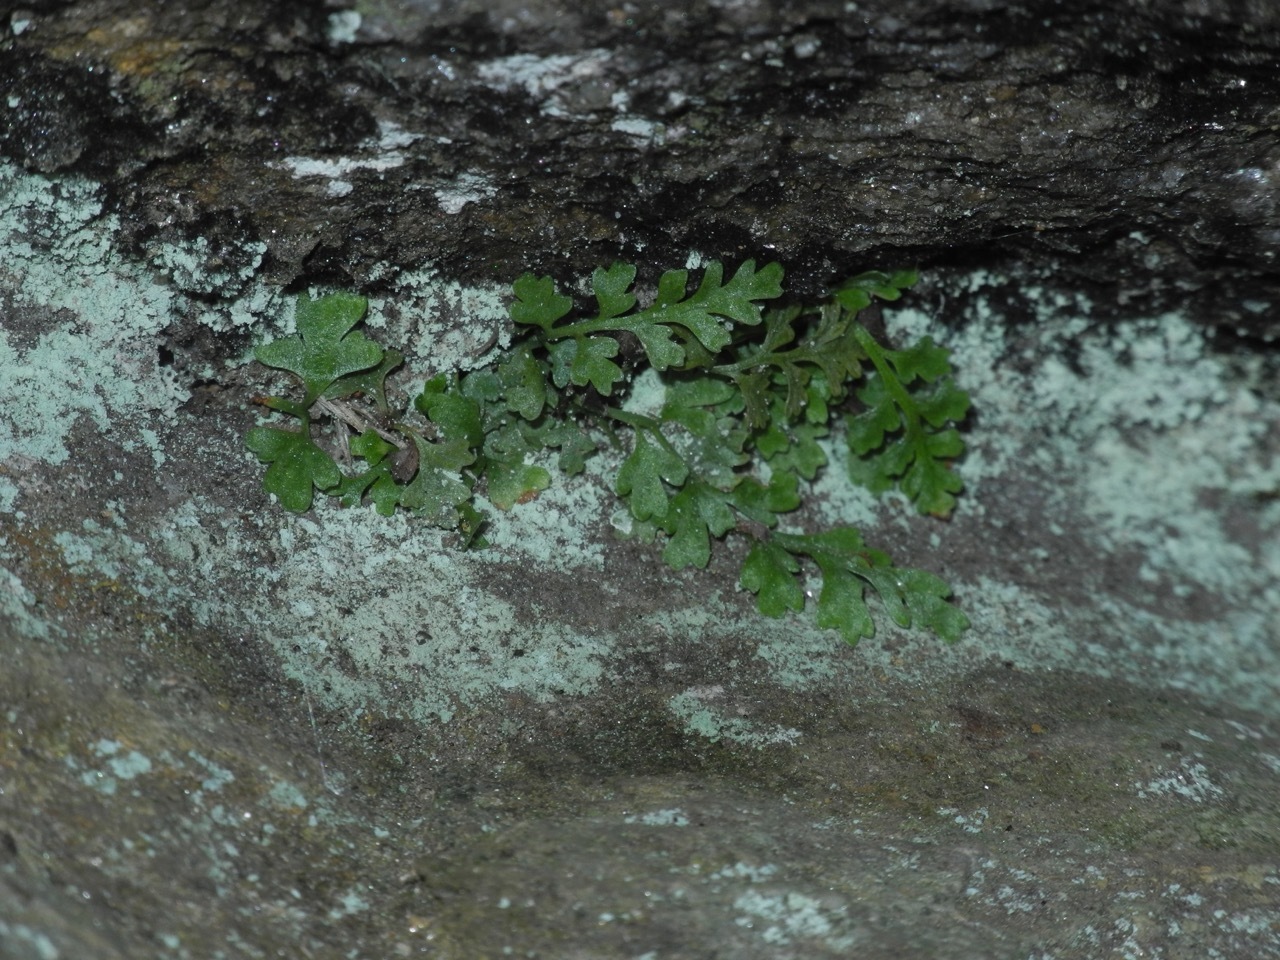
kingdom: Plantae
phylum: Tracheophyta
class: Polypodiopsida
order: Polypodiales
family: Aspleniaceae
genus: Asplenium
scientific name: Asplenium montanum
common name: Mountain spleenwort
